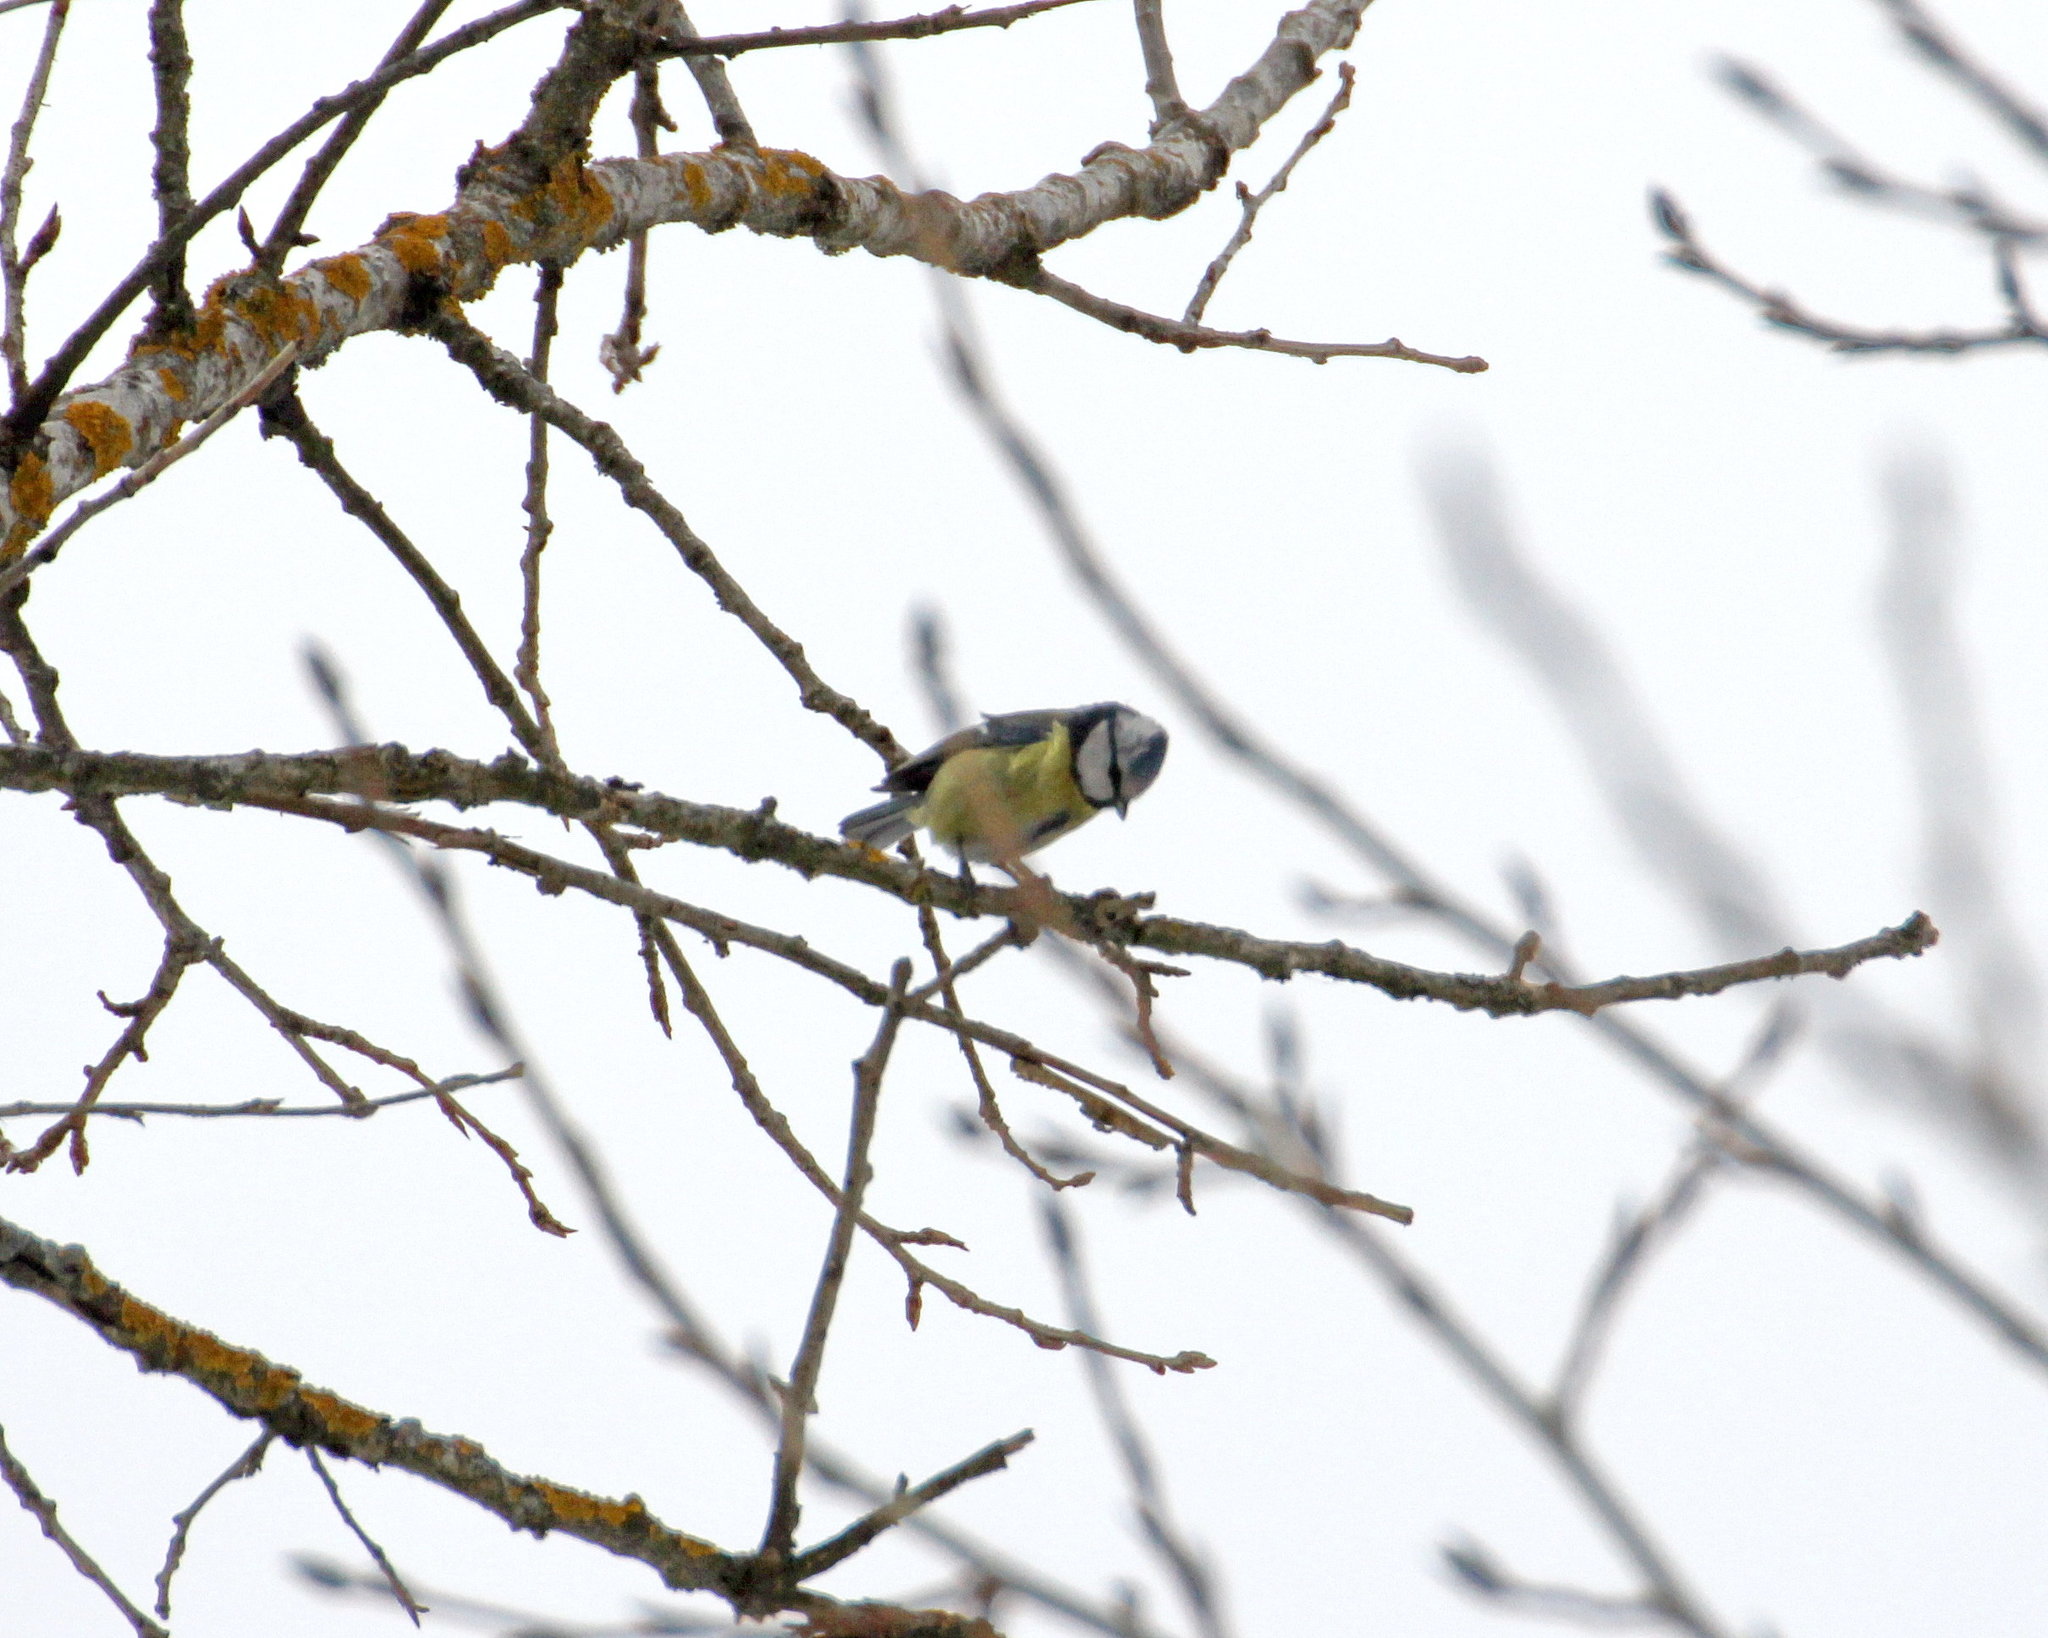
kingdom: Animalia
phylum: Chordata
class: Aves
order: Passeriformes
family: Paridae
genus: Cyanistes
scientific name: Cyanistes caeruleus
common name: Eurasian blue tit
